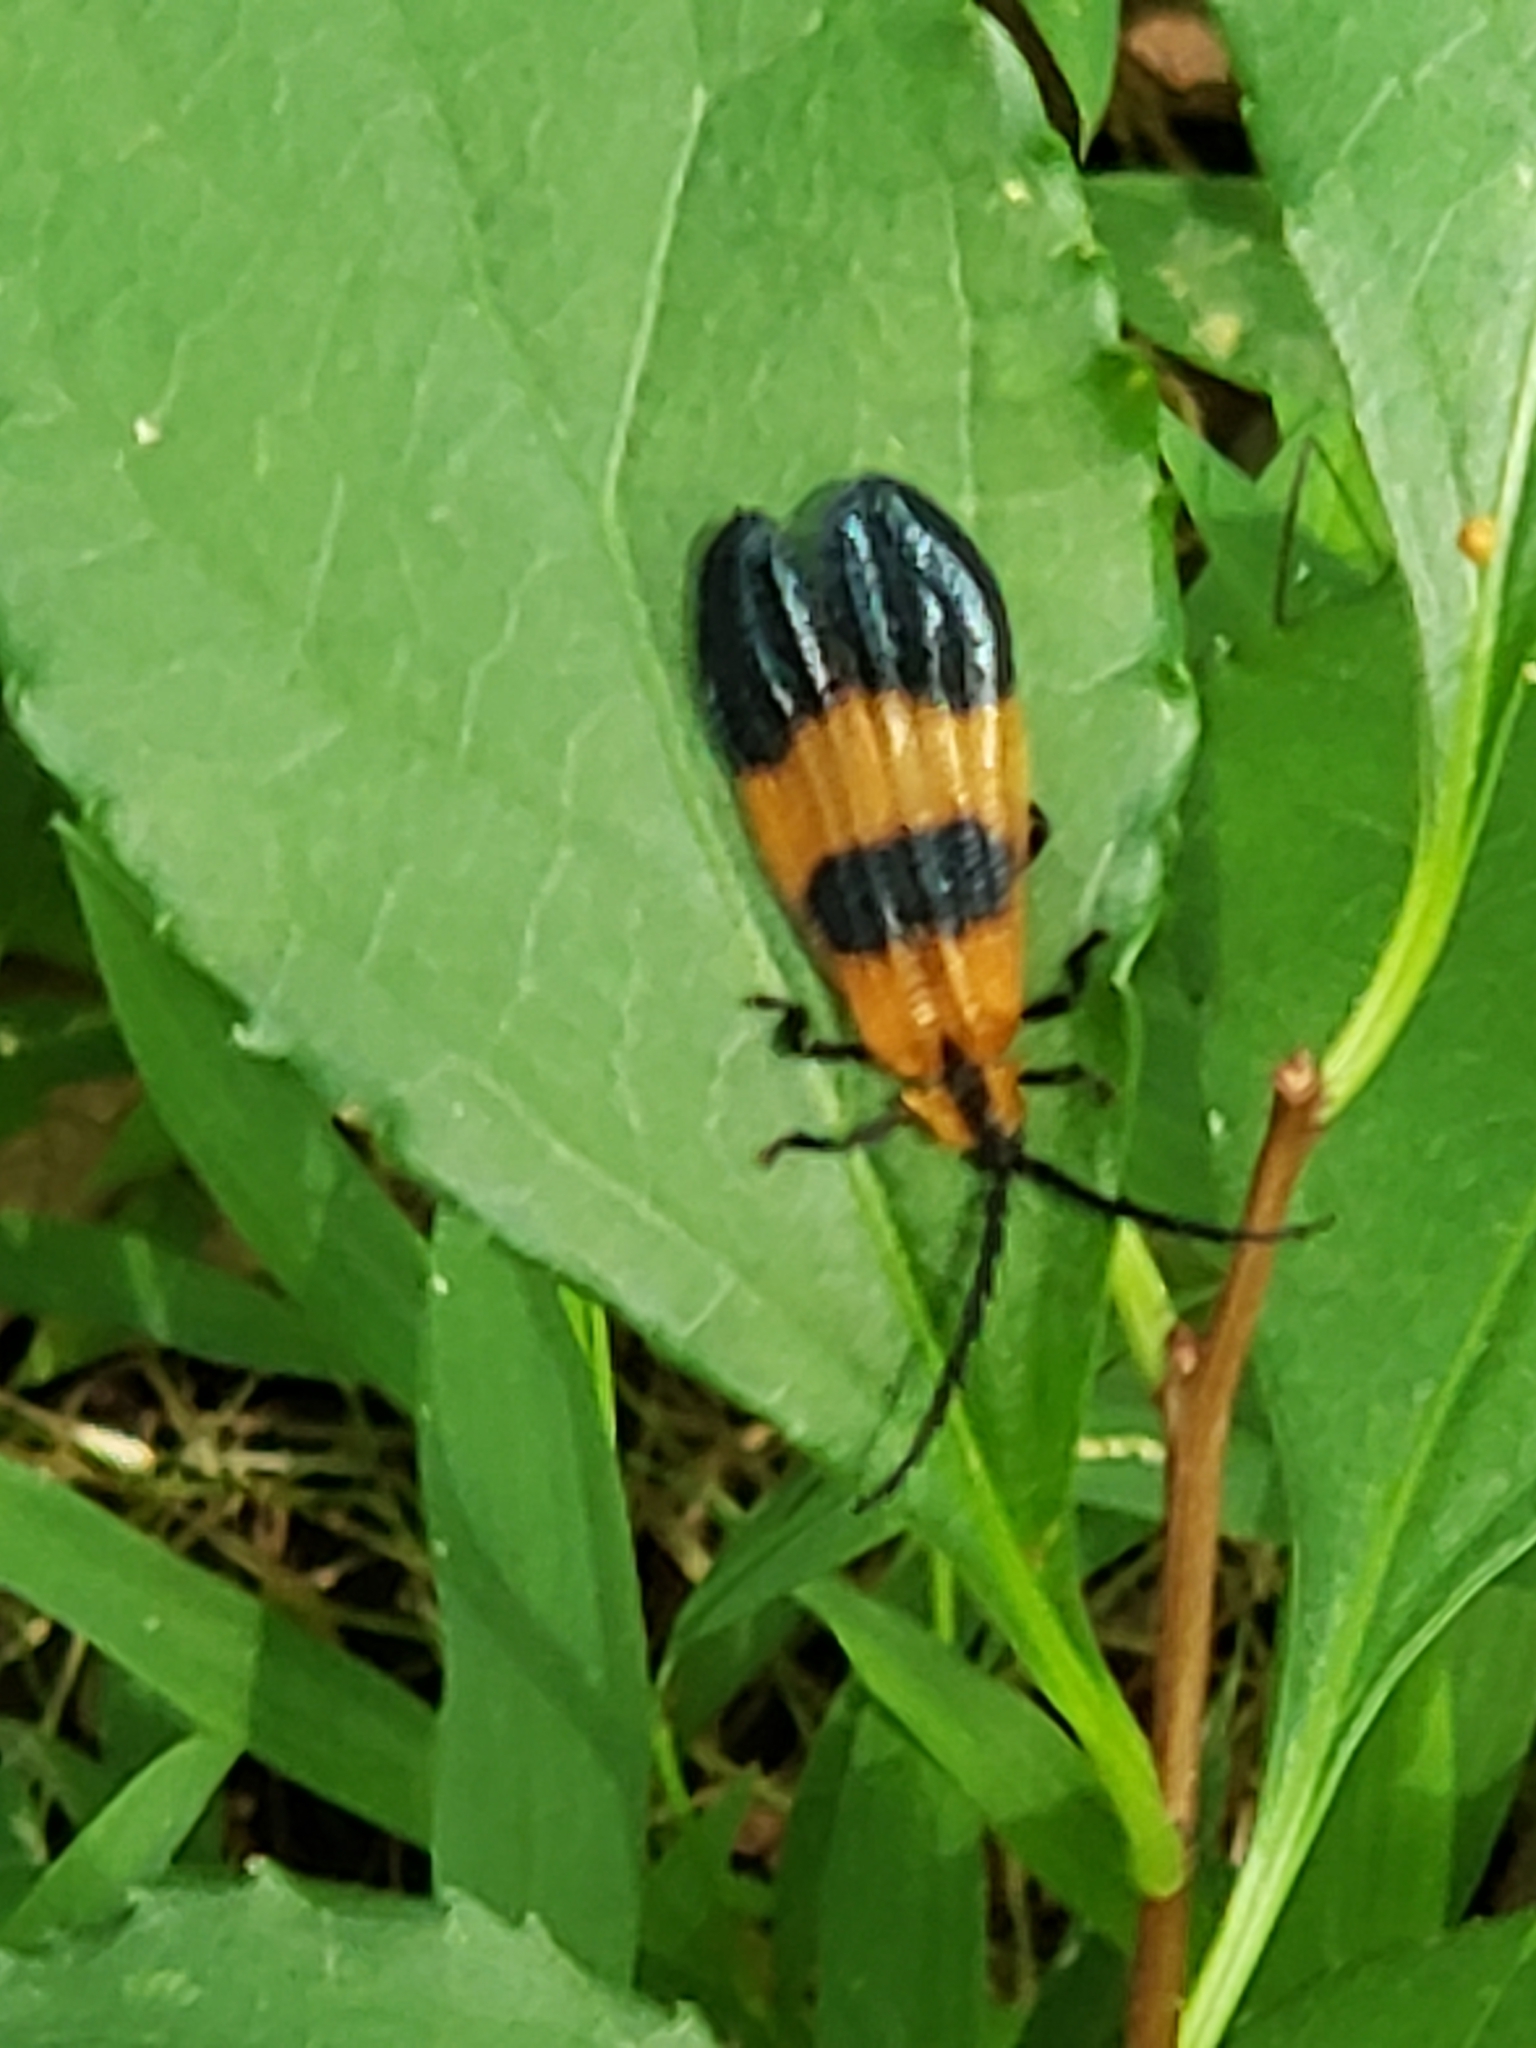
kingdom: Animalia
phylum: Arthropoda
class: Insecta
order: Coleoptera
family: Lycidae
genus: Calopteron
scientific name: Calopteron terminale
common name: End band net-winged beetle
